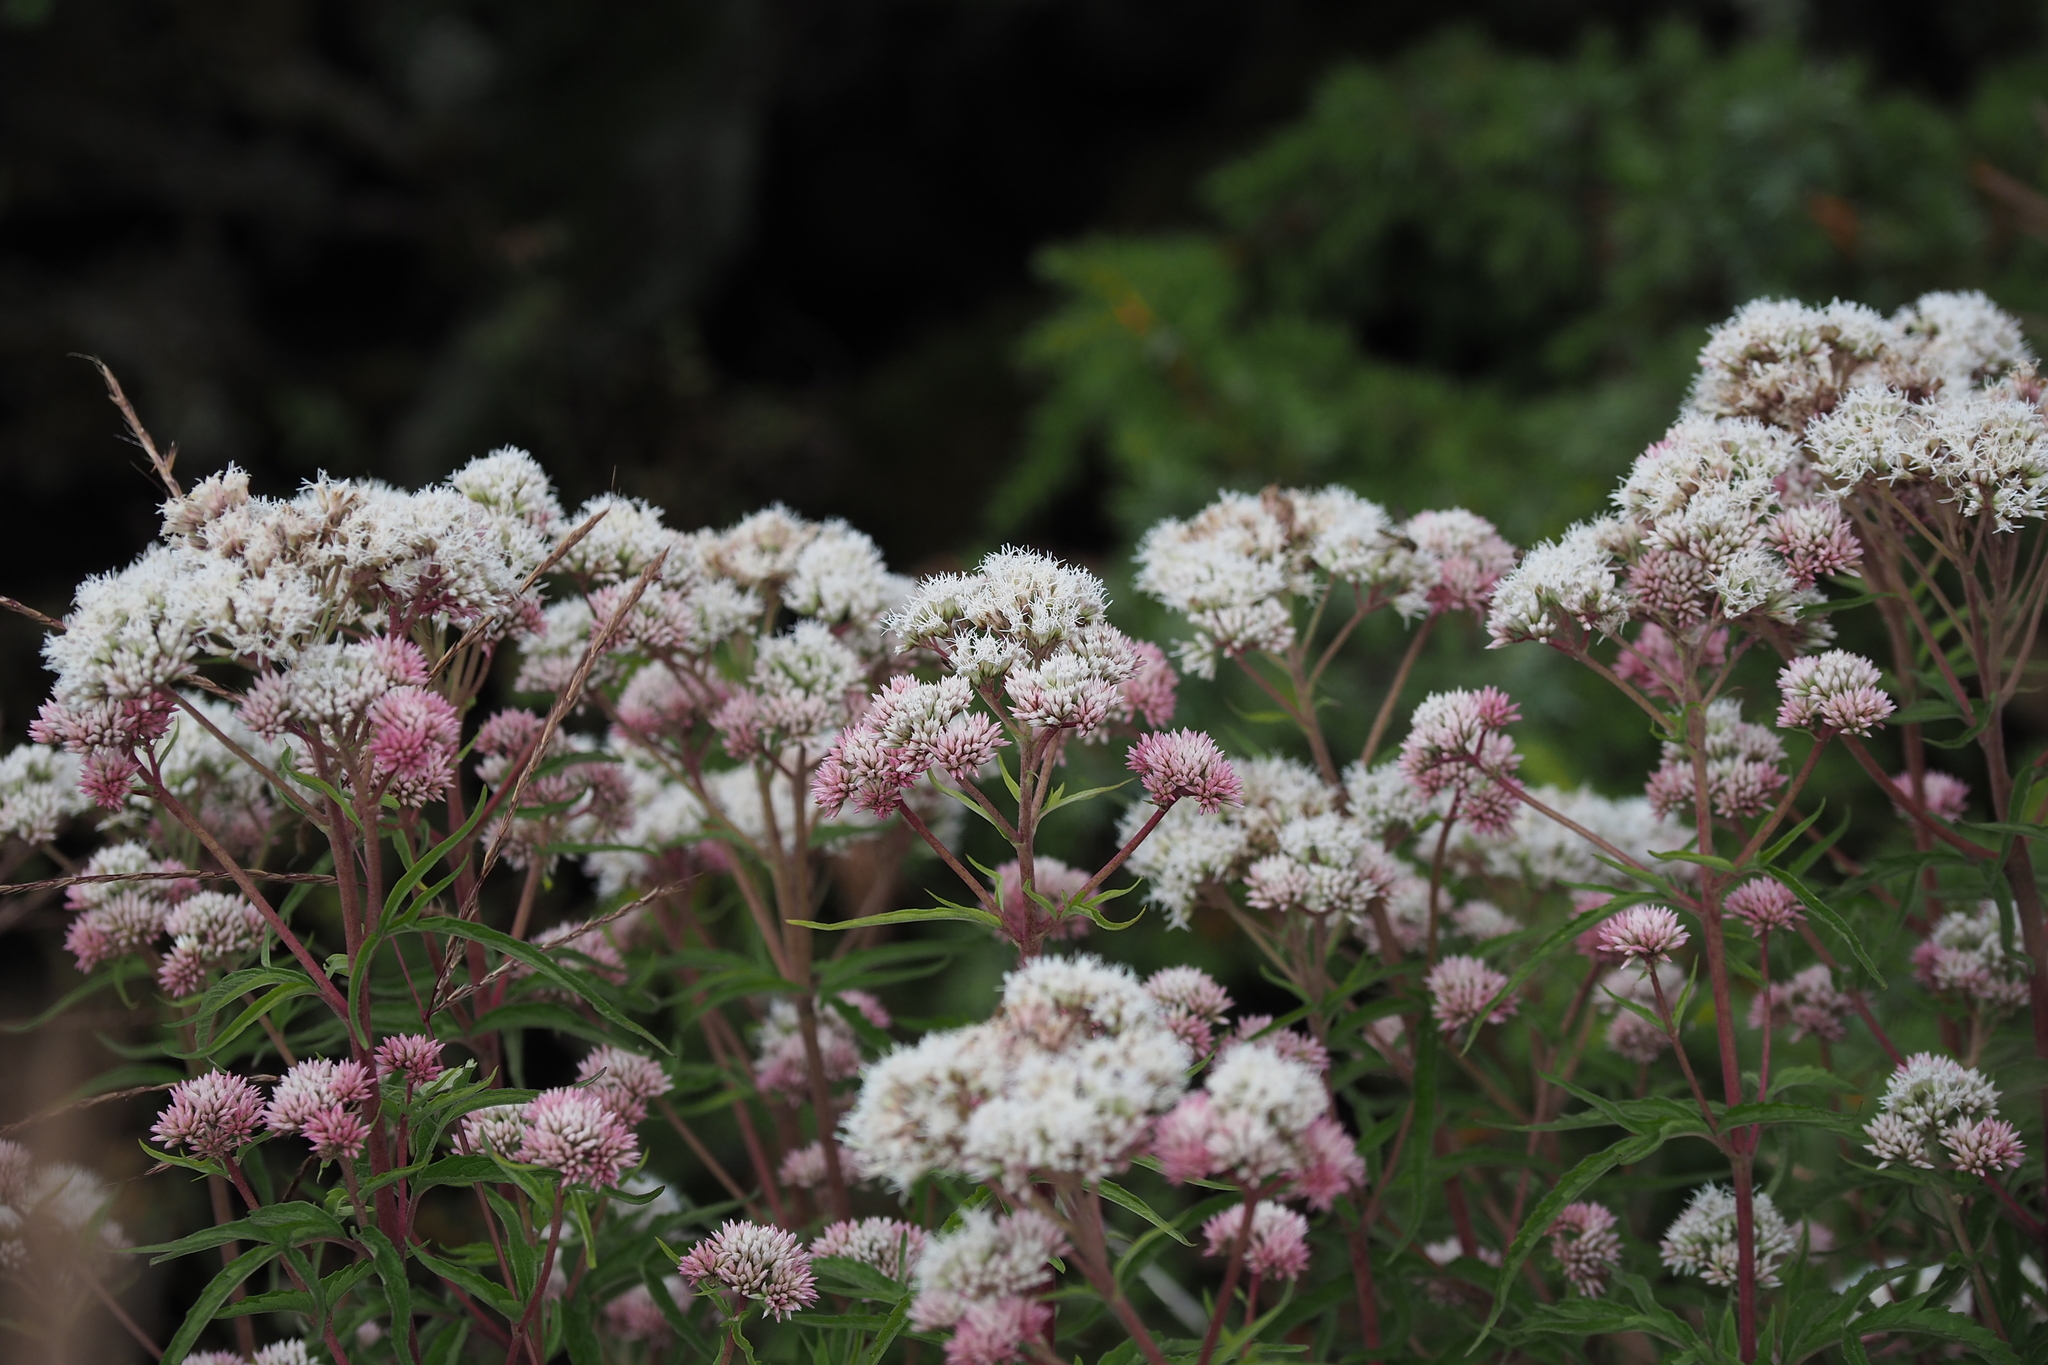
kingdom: Plantae
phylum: Tracheophyta
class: Magnoliopsida
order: Asterales
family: Asteraceae
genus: Eupatorium
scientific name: Eupatorium formosanum
